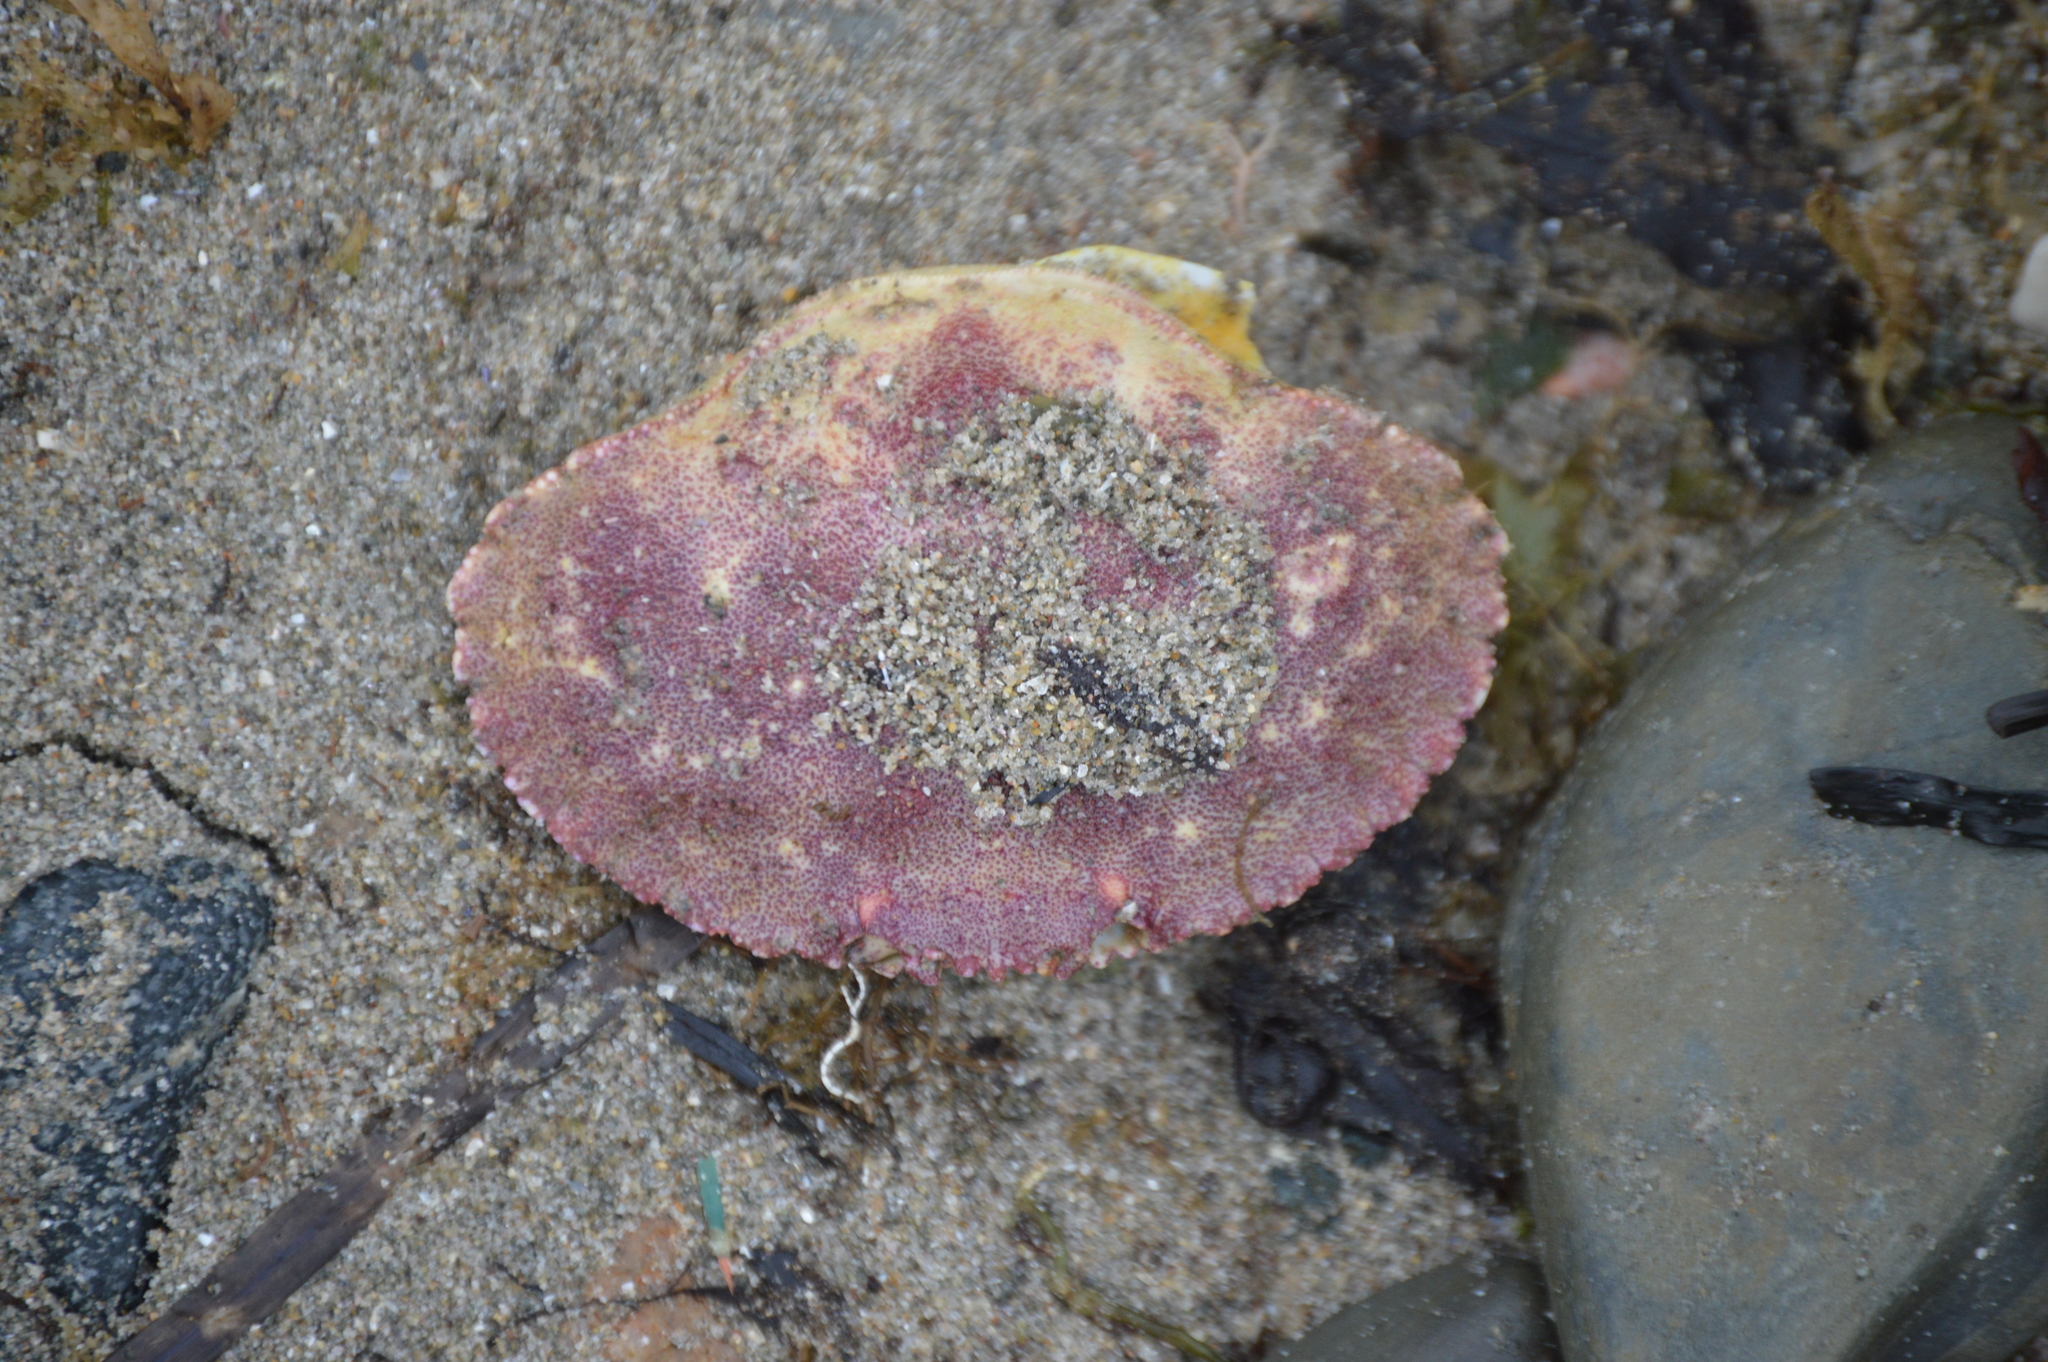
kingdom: Animalia
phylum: Arthropoda
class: Malacostraca
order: Decapoda
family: Cancridae
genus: Cancer
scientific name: Cancer borealis
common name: Jonah crab
